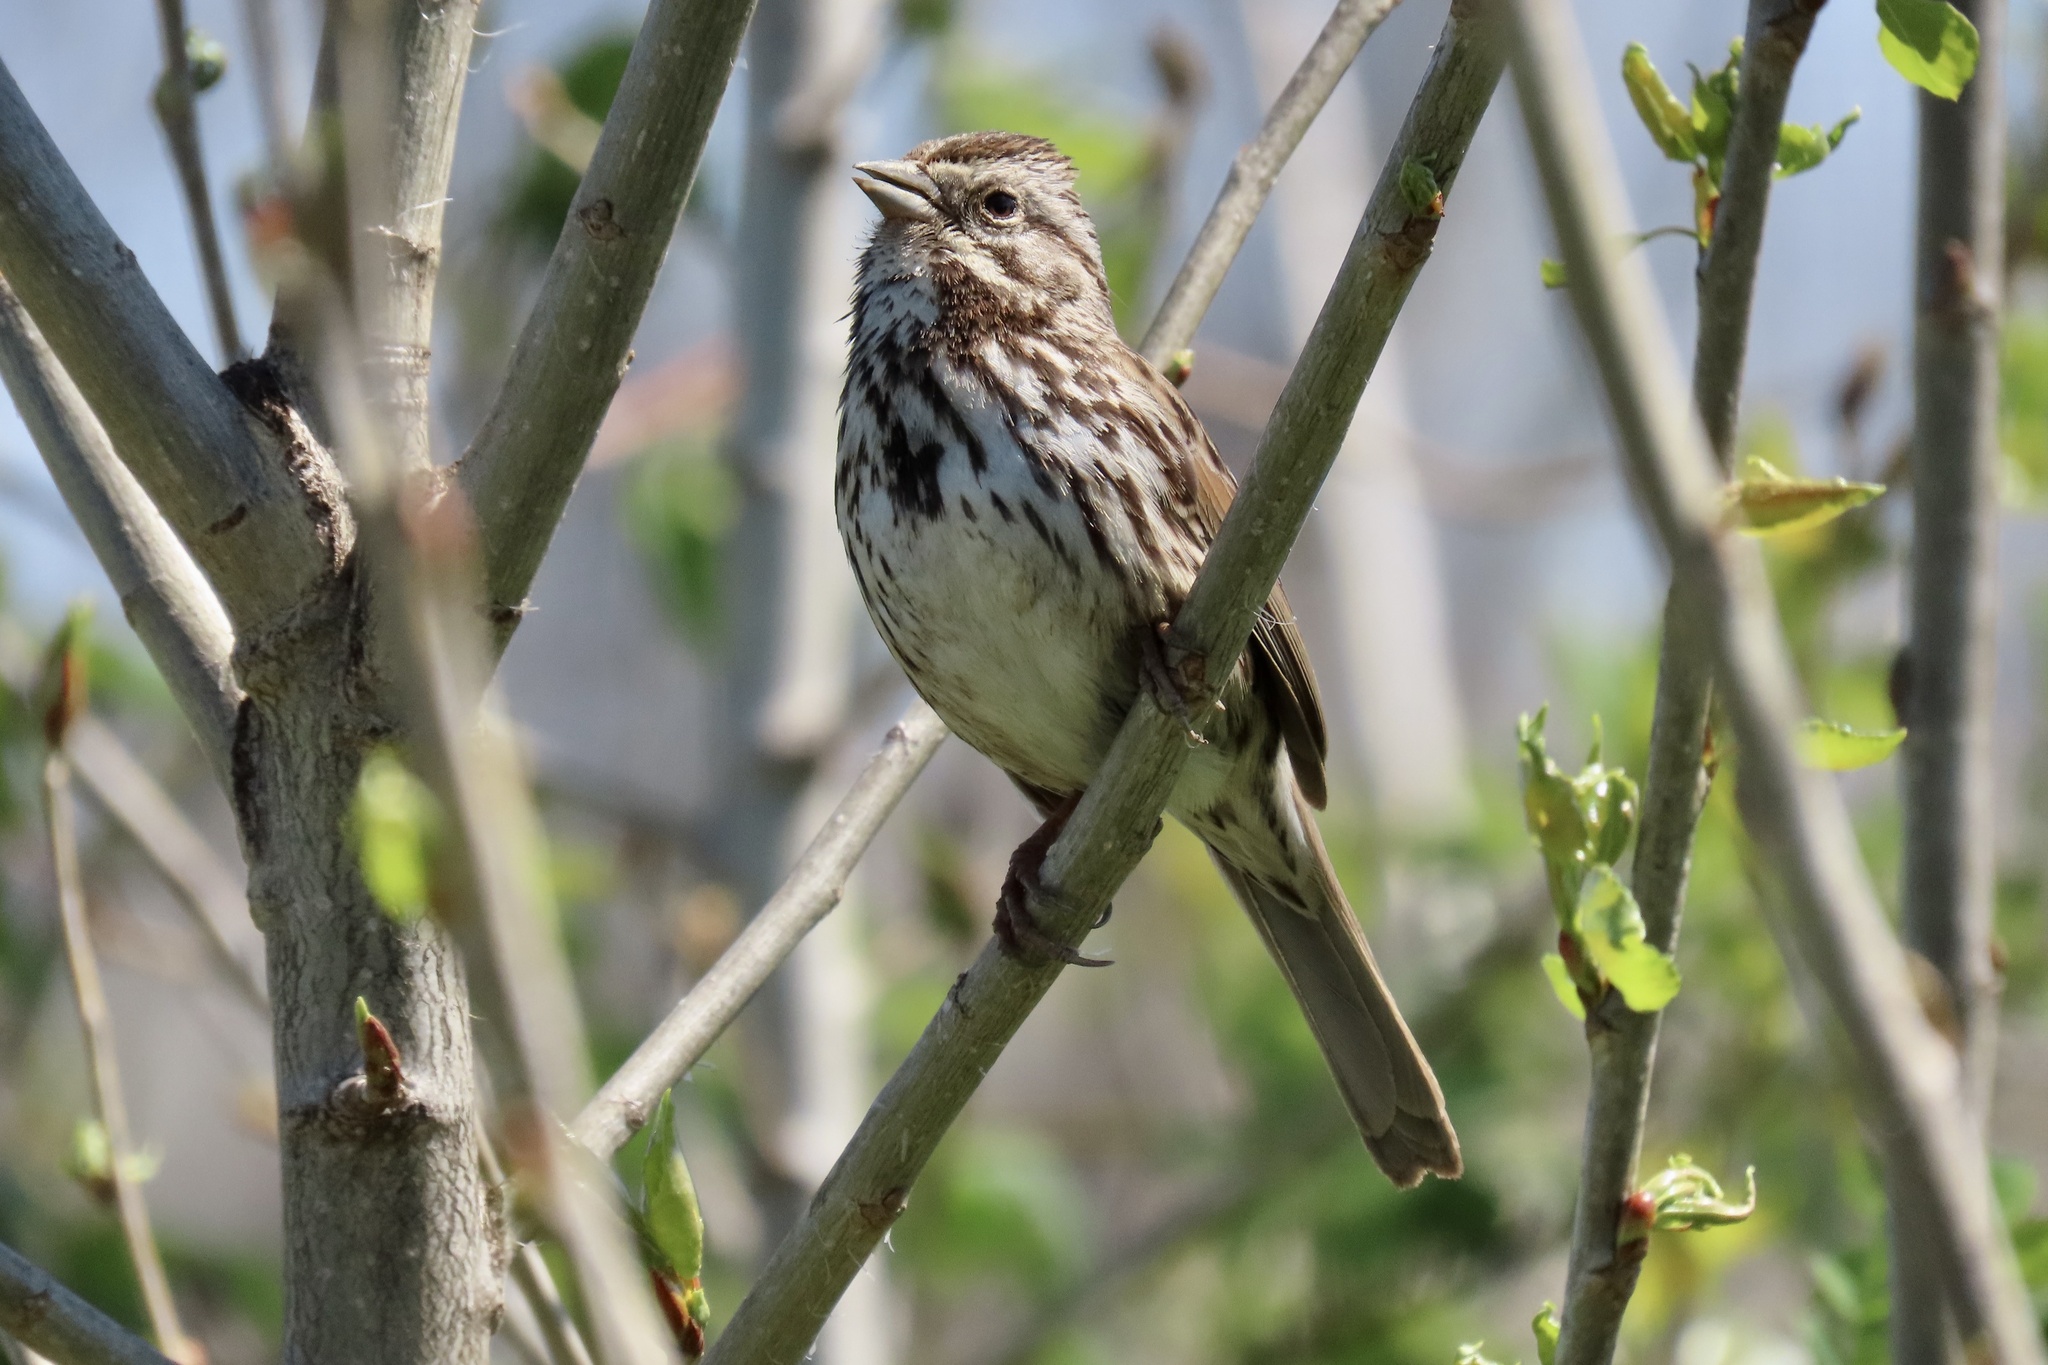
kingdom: Animalia
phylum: Chordata
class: Aves
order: Passeriformes
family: Passerellidae
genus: Melospiza
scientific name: Melospiza melodia
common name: Song sparrow
